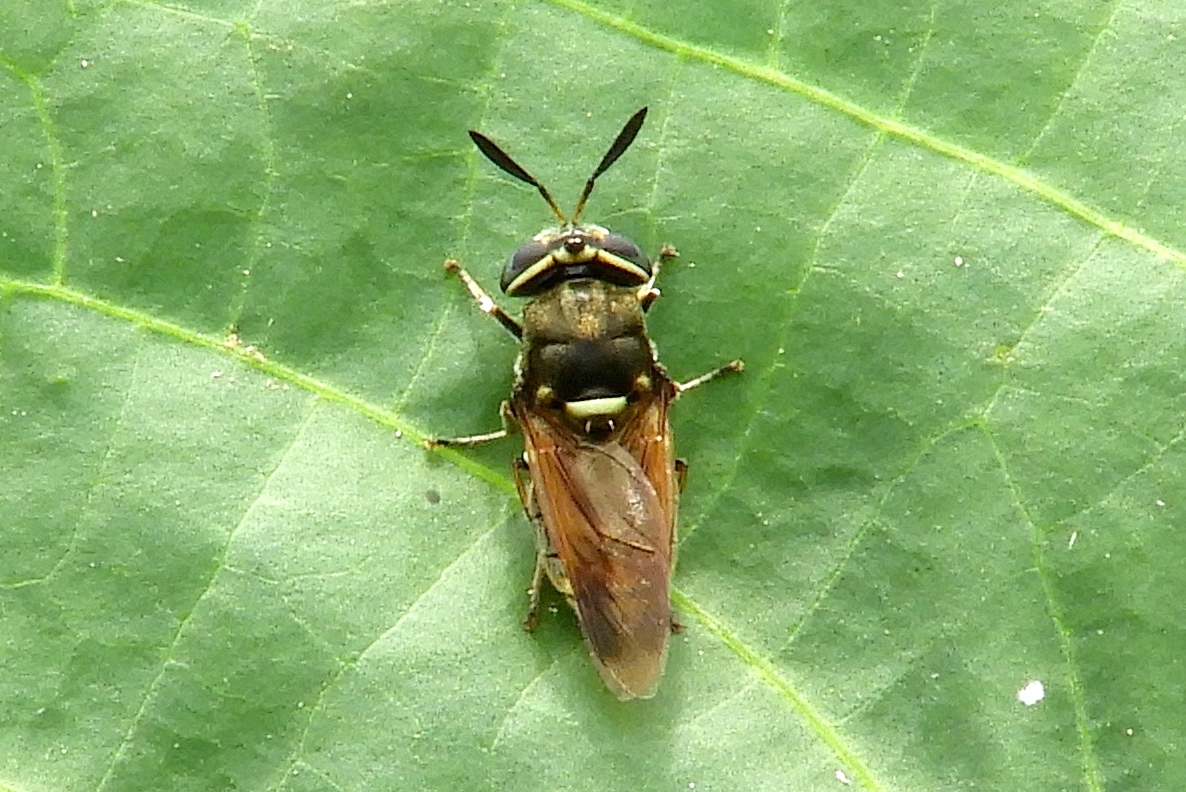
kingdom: Animalia
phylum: Arthropoda
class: Insecta
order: Diptera
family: Stratiomyidae
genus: Hoplitimyia
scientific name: Hoplitimyia
